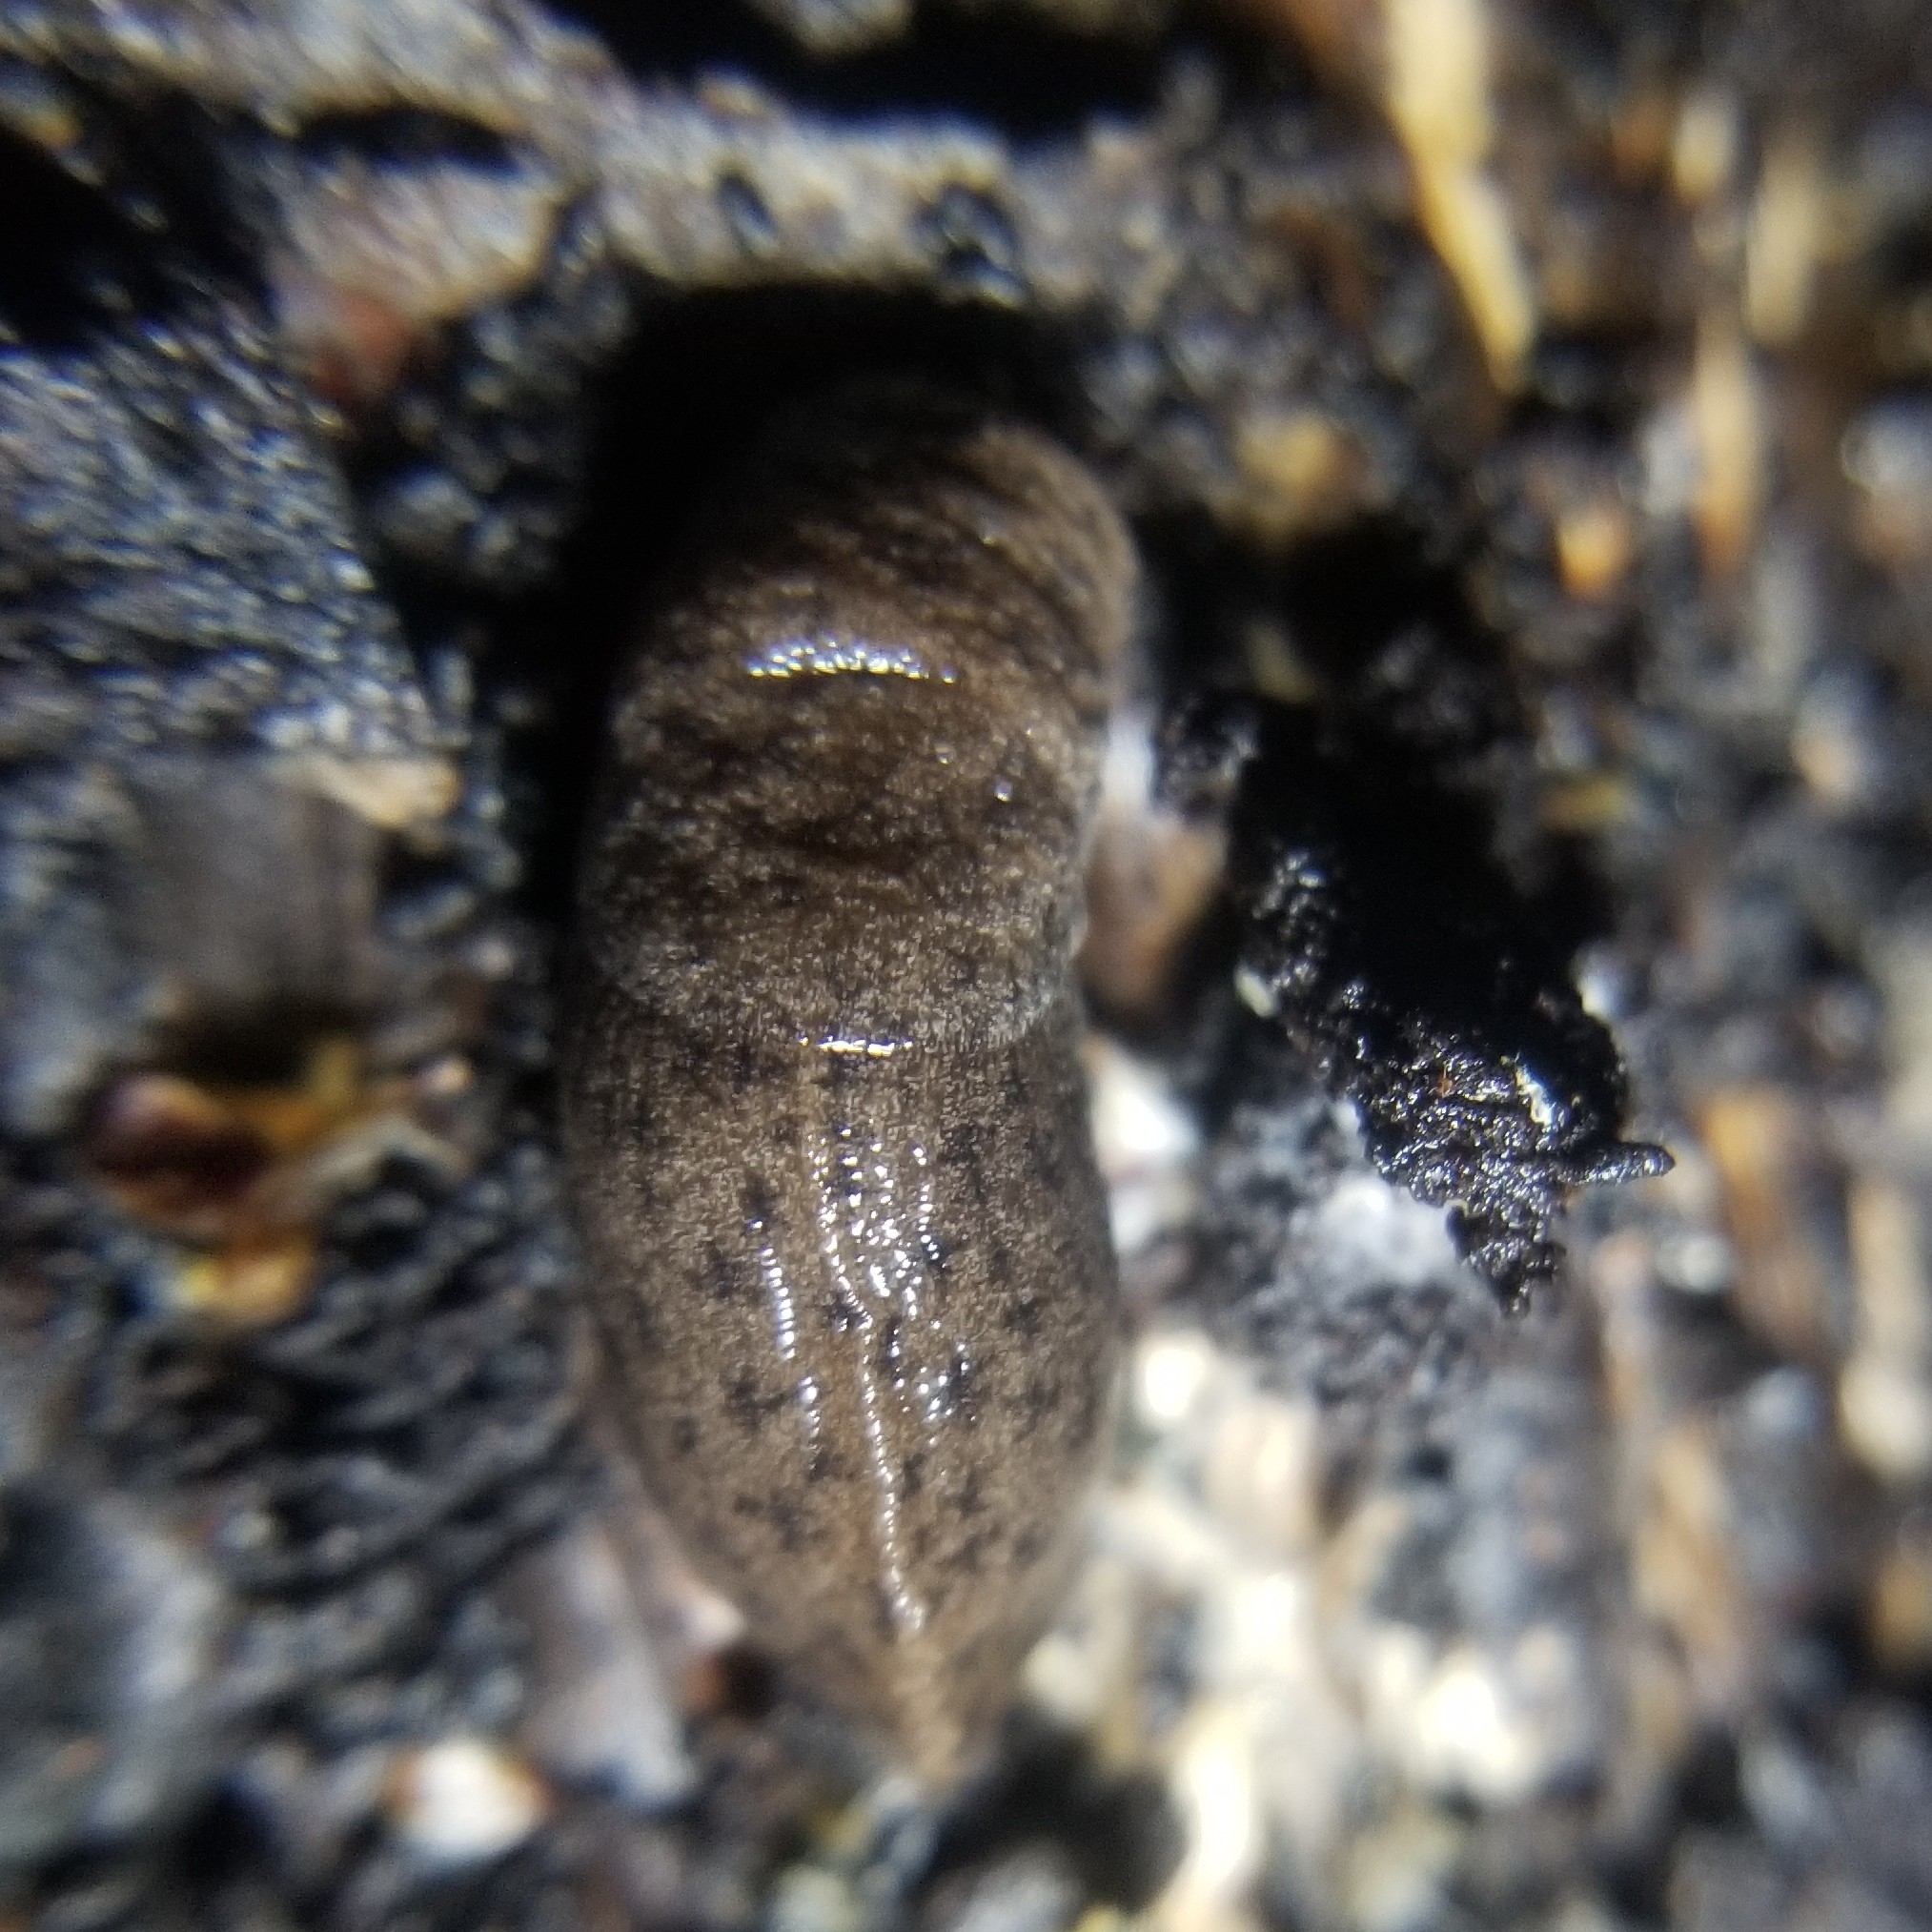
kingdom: Animalia
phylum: Mollusca
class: Gastropoda
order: Stylommatophora
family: Ariolimacidae
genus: Hesperarion
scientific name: Hesperarion niger
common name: Black western slug
